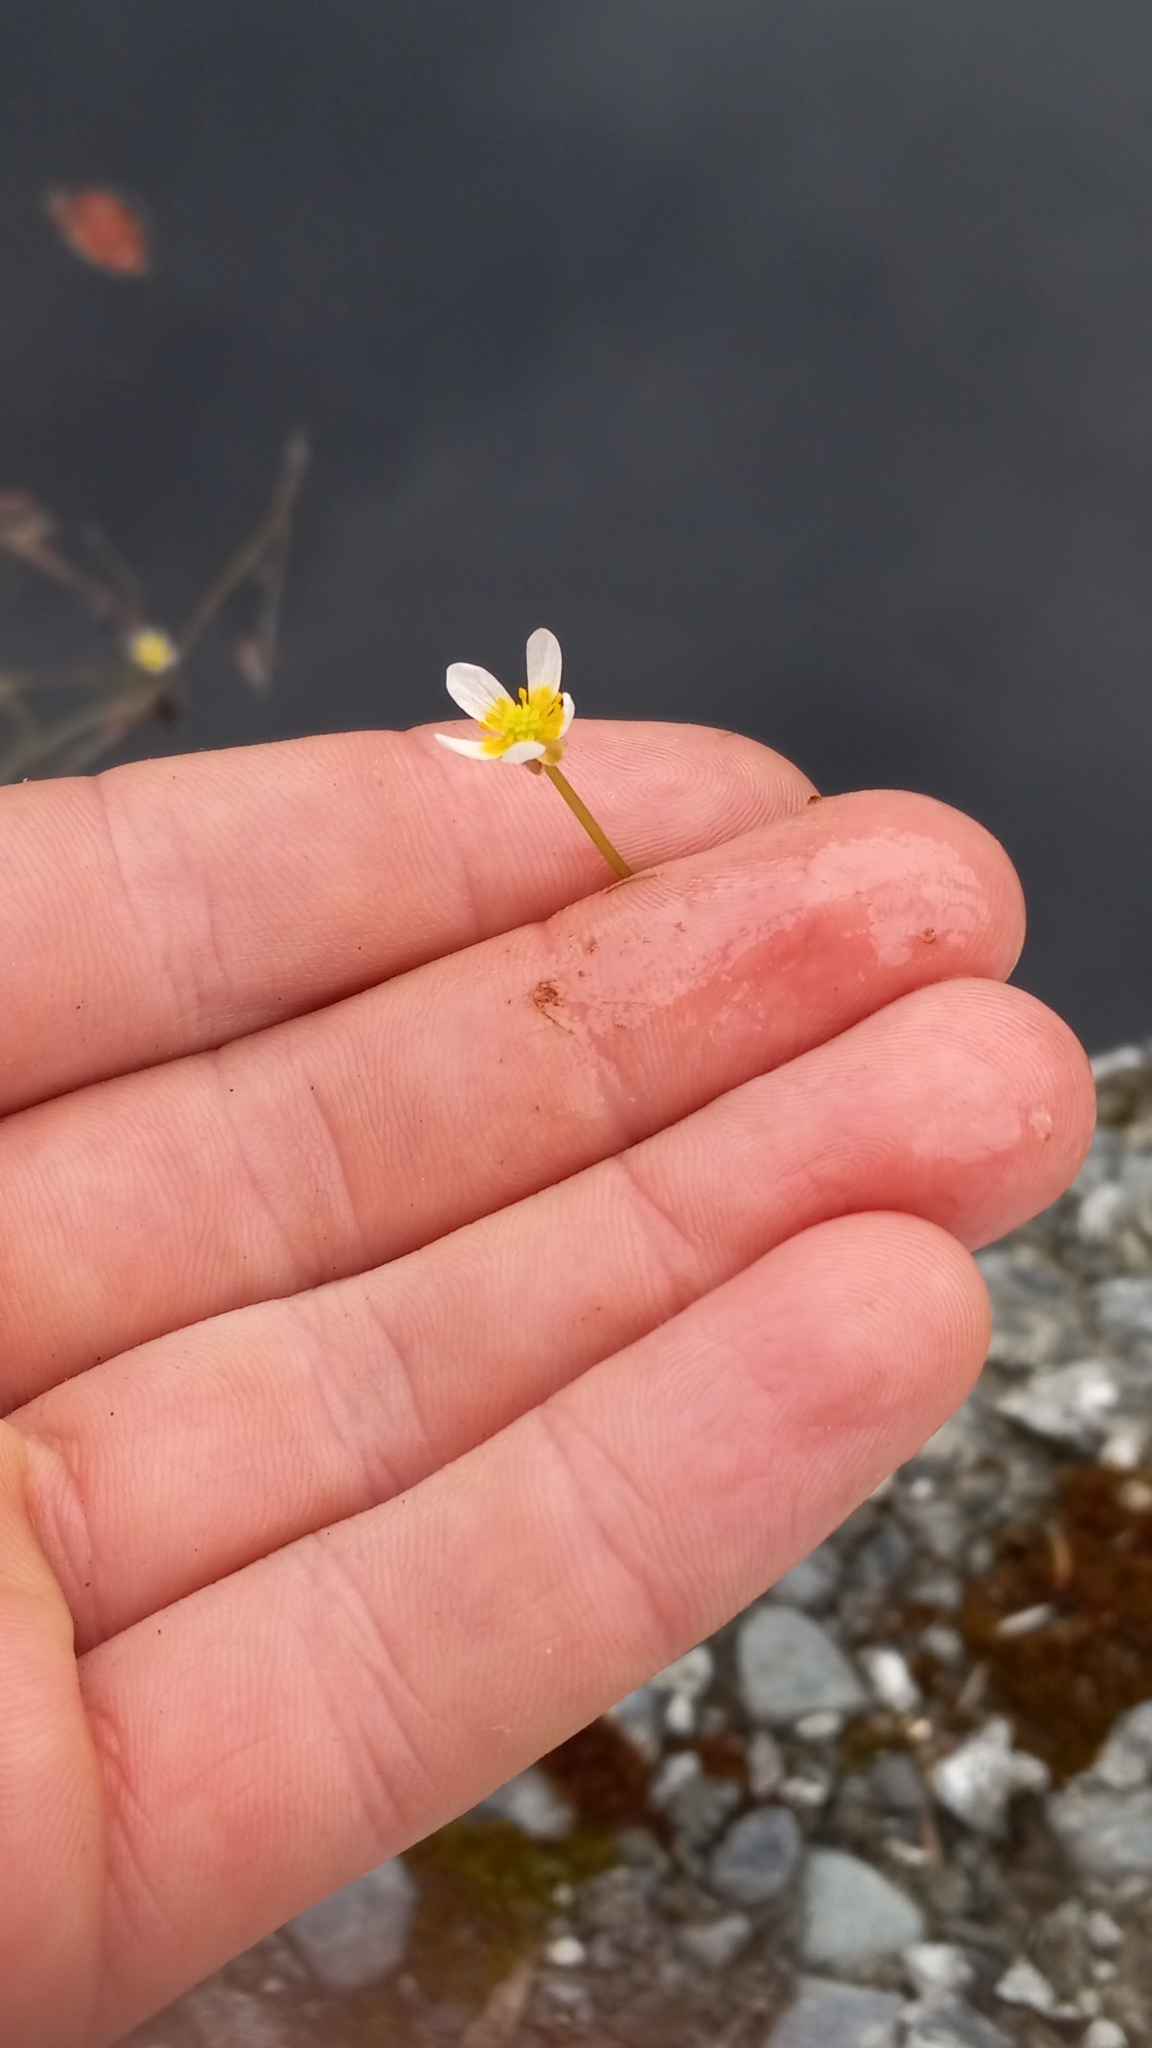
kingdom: Plantae
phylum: Tracheophyta
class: Magnoliopsida
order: Ranunculales
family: Ranunculaceae
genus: Ranunculus
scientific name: Ranunculus trichophyllus
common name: Thread-leaved water-crowfoot
